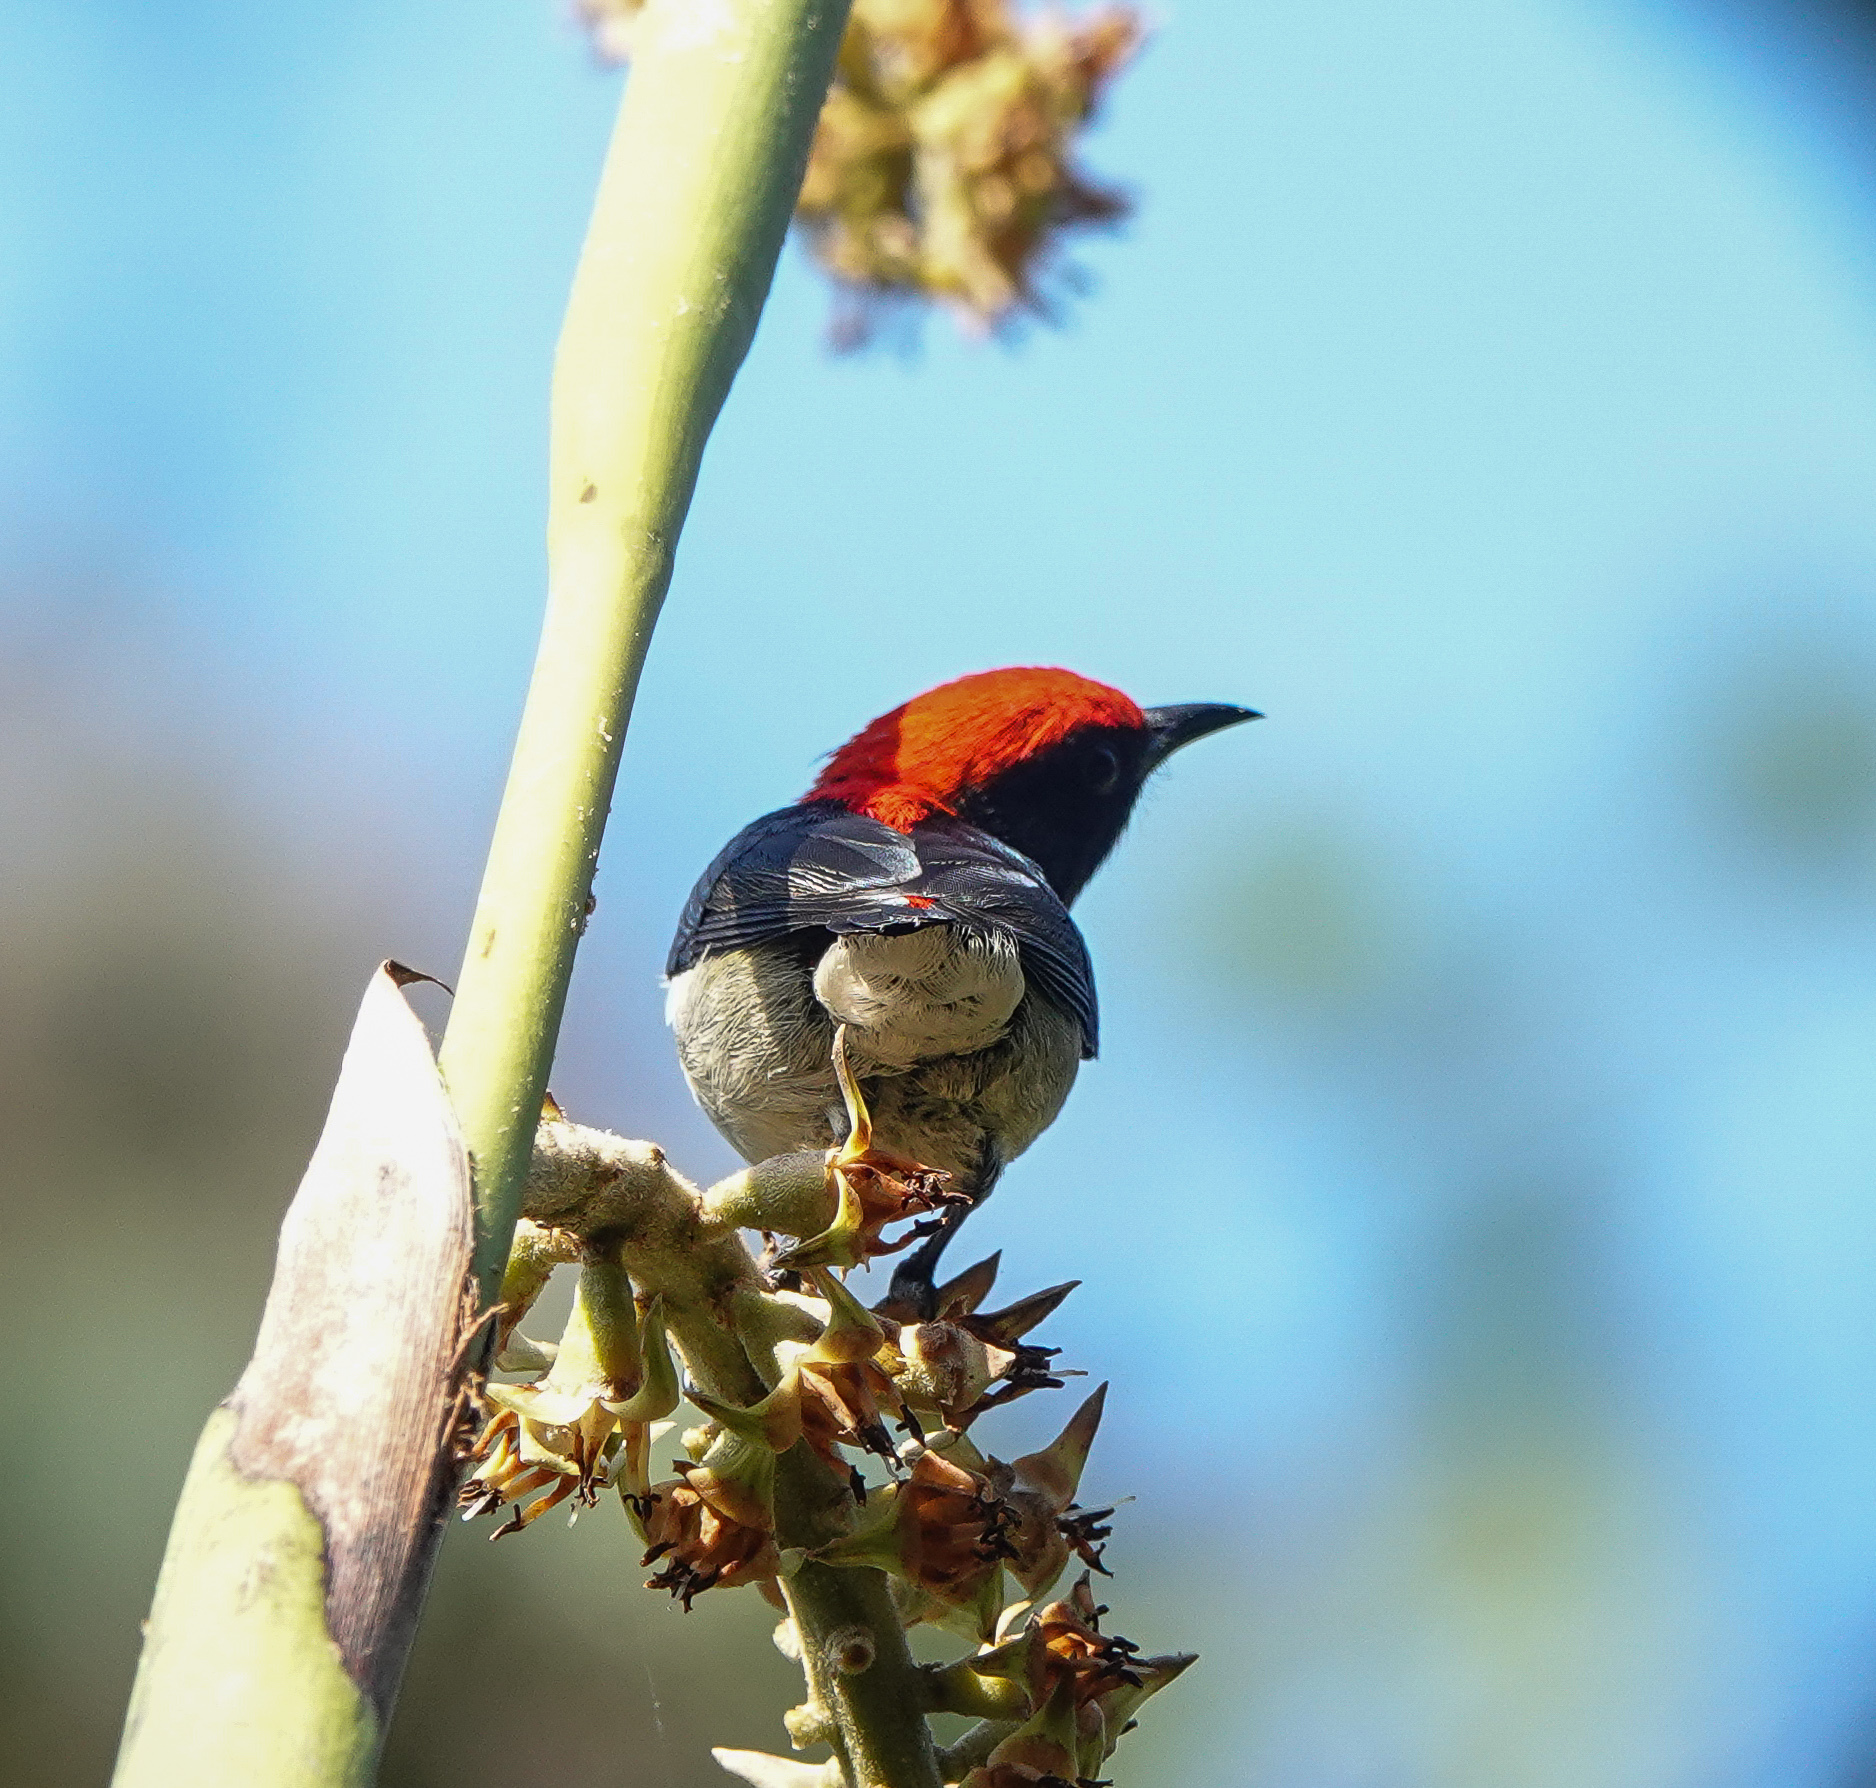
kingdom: Animalia
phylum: Chordata
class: Aves
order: Passeriformes
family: Dicaeidae
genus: Dicaeum
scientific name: Dicaeum cruentatum
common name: Scarlet-backed flowerpecker
